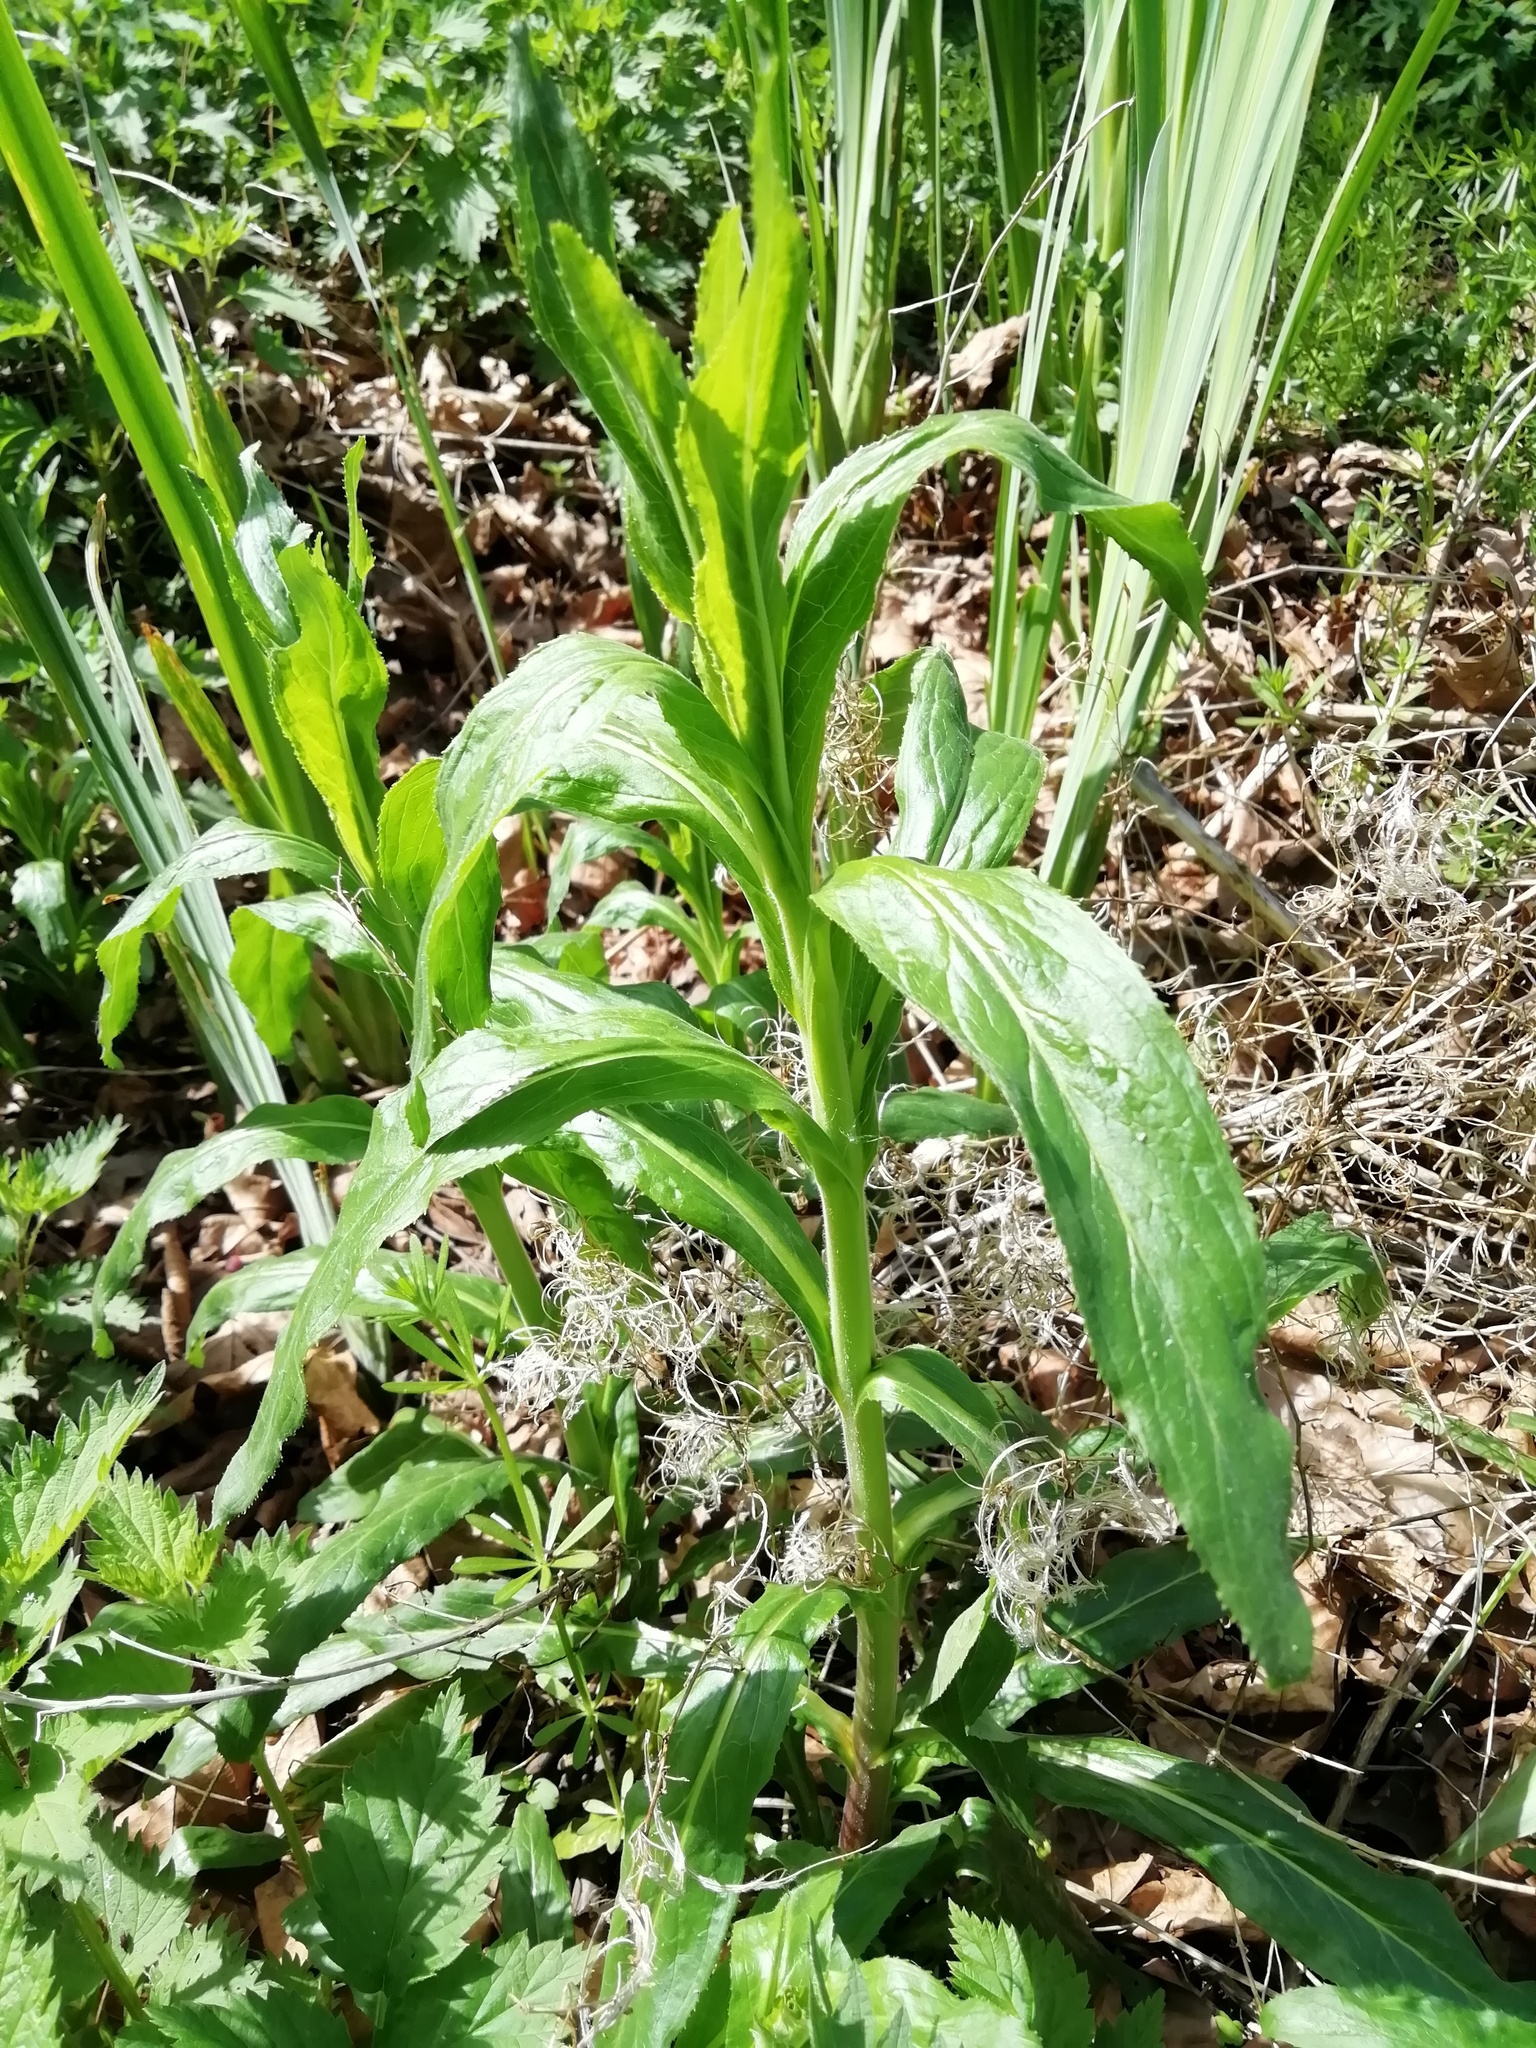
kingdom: Plantae
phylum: Tracheophyta
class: Magnoliopsida
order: Myrtales
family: Onagraceae
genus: Epilobium
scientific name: Epilobium hirsutum
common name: Great willowherb
